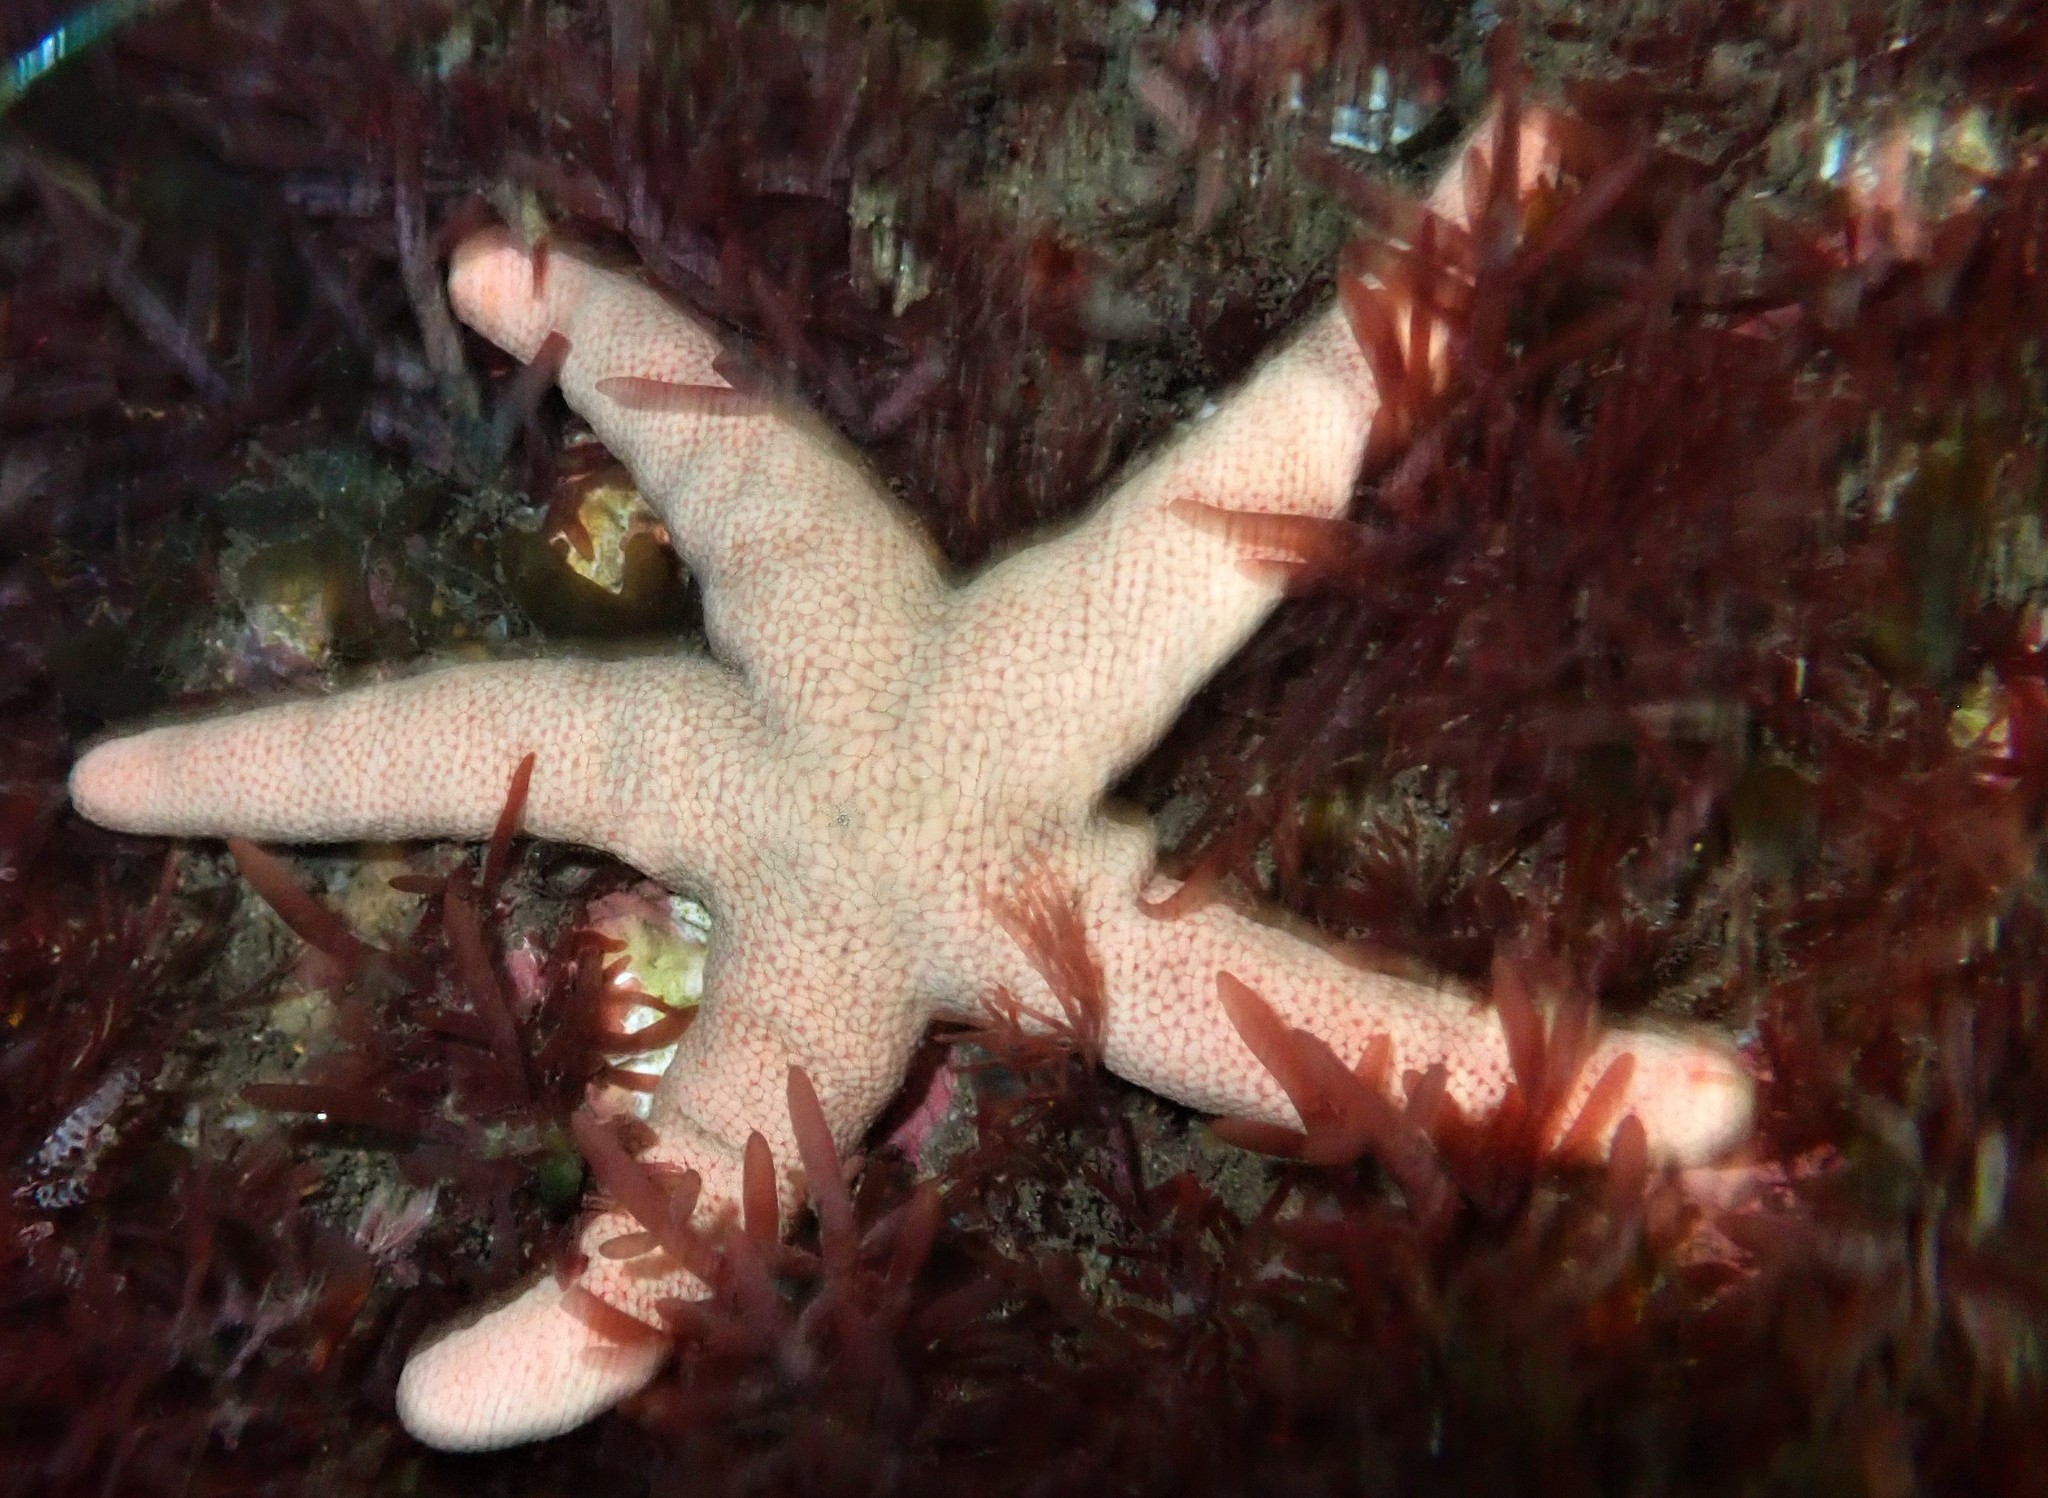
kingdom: Animalia
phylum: Echinodermata
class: Asteroidea
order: Valvatida
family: Asterinidae
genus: Pseudonepanthia
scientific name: Pseudonepanthia troughtoni
